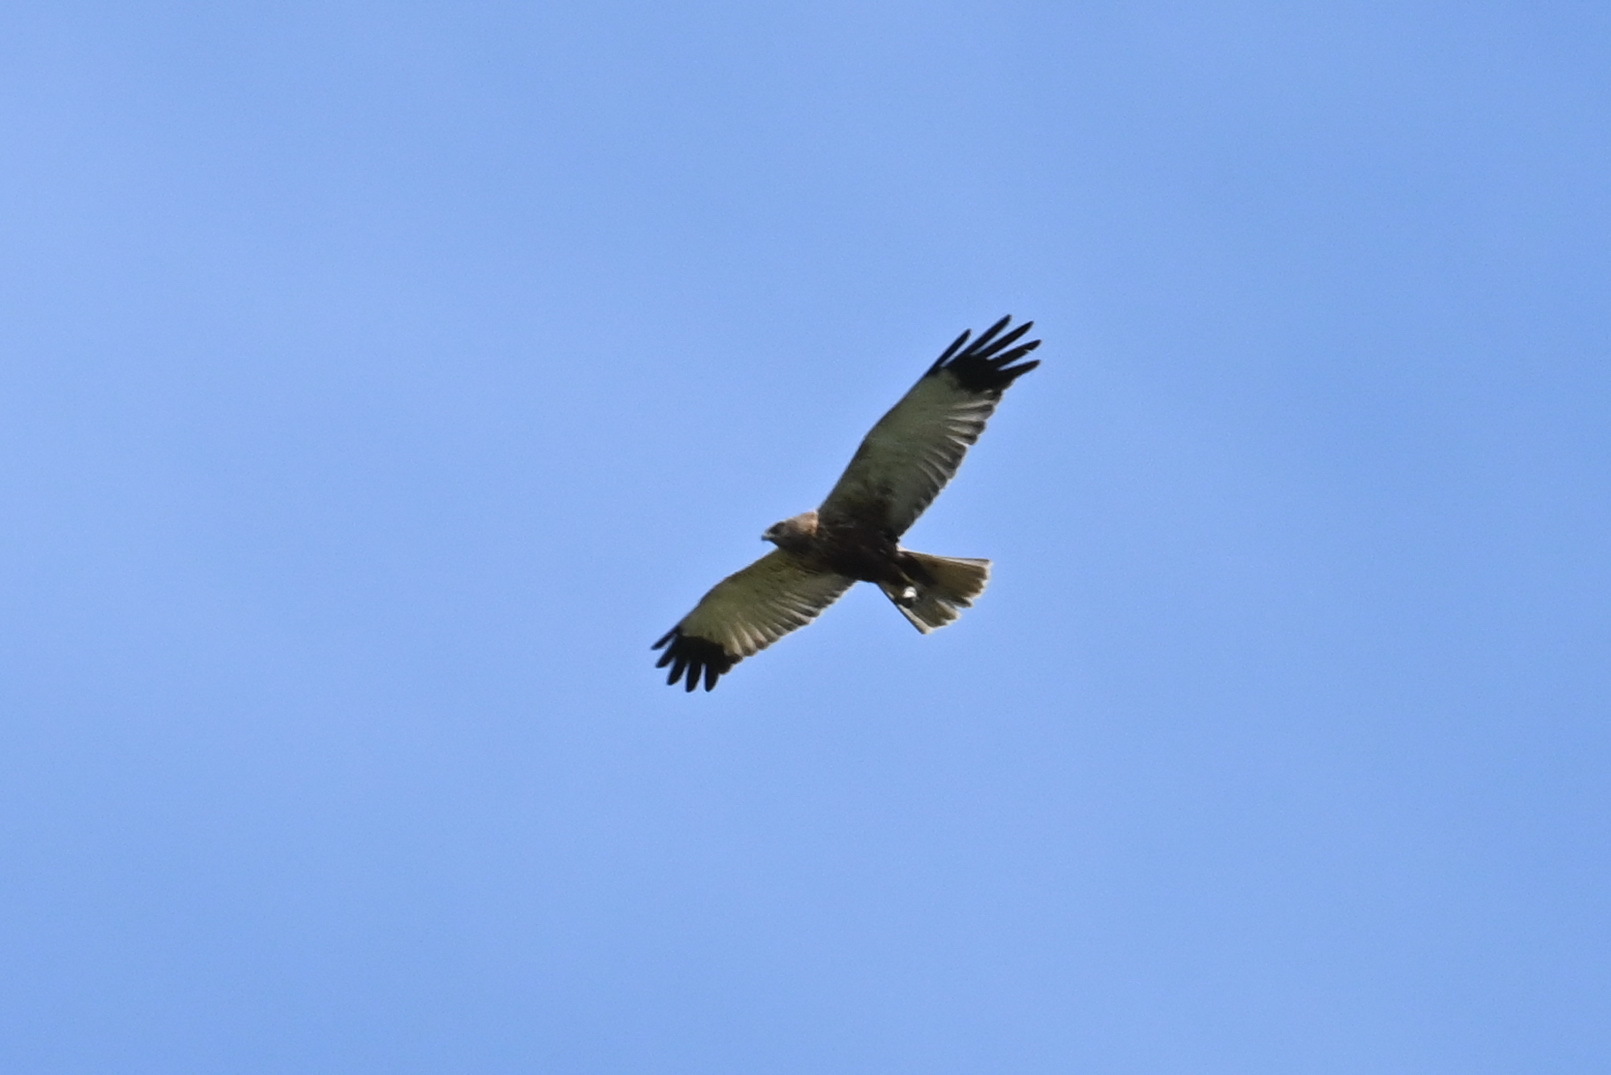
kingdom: Animalia
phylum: Chordata
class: Aves
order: Accipitriformes
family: Accipitridae
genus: Circus
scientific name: Circus aeruginosus
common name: Western marsh harrier
